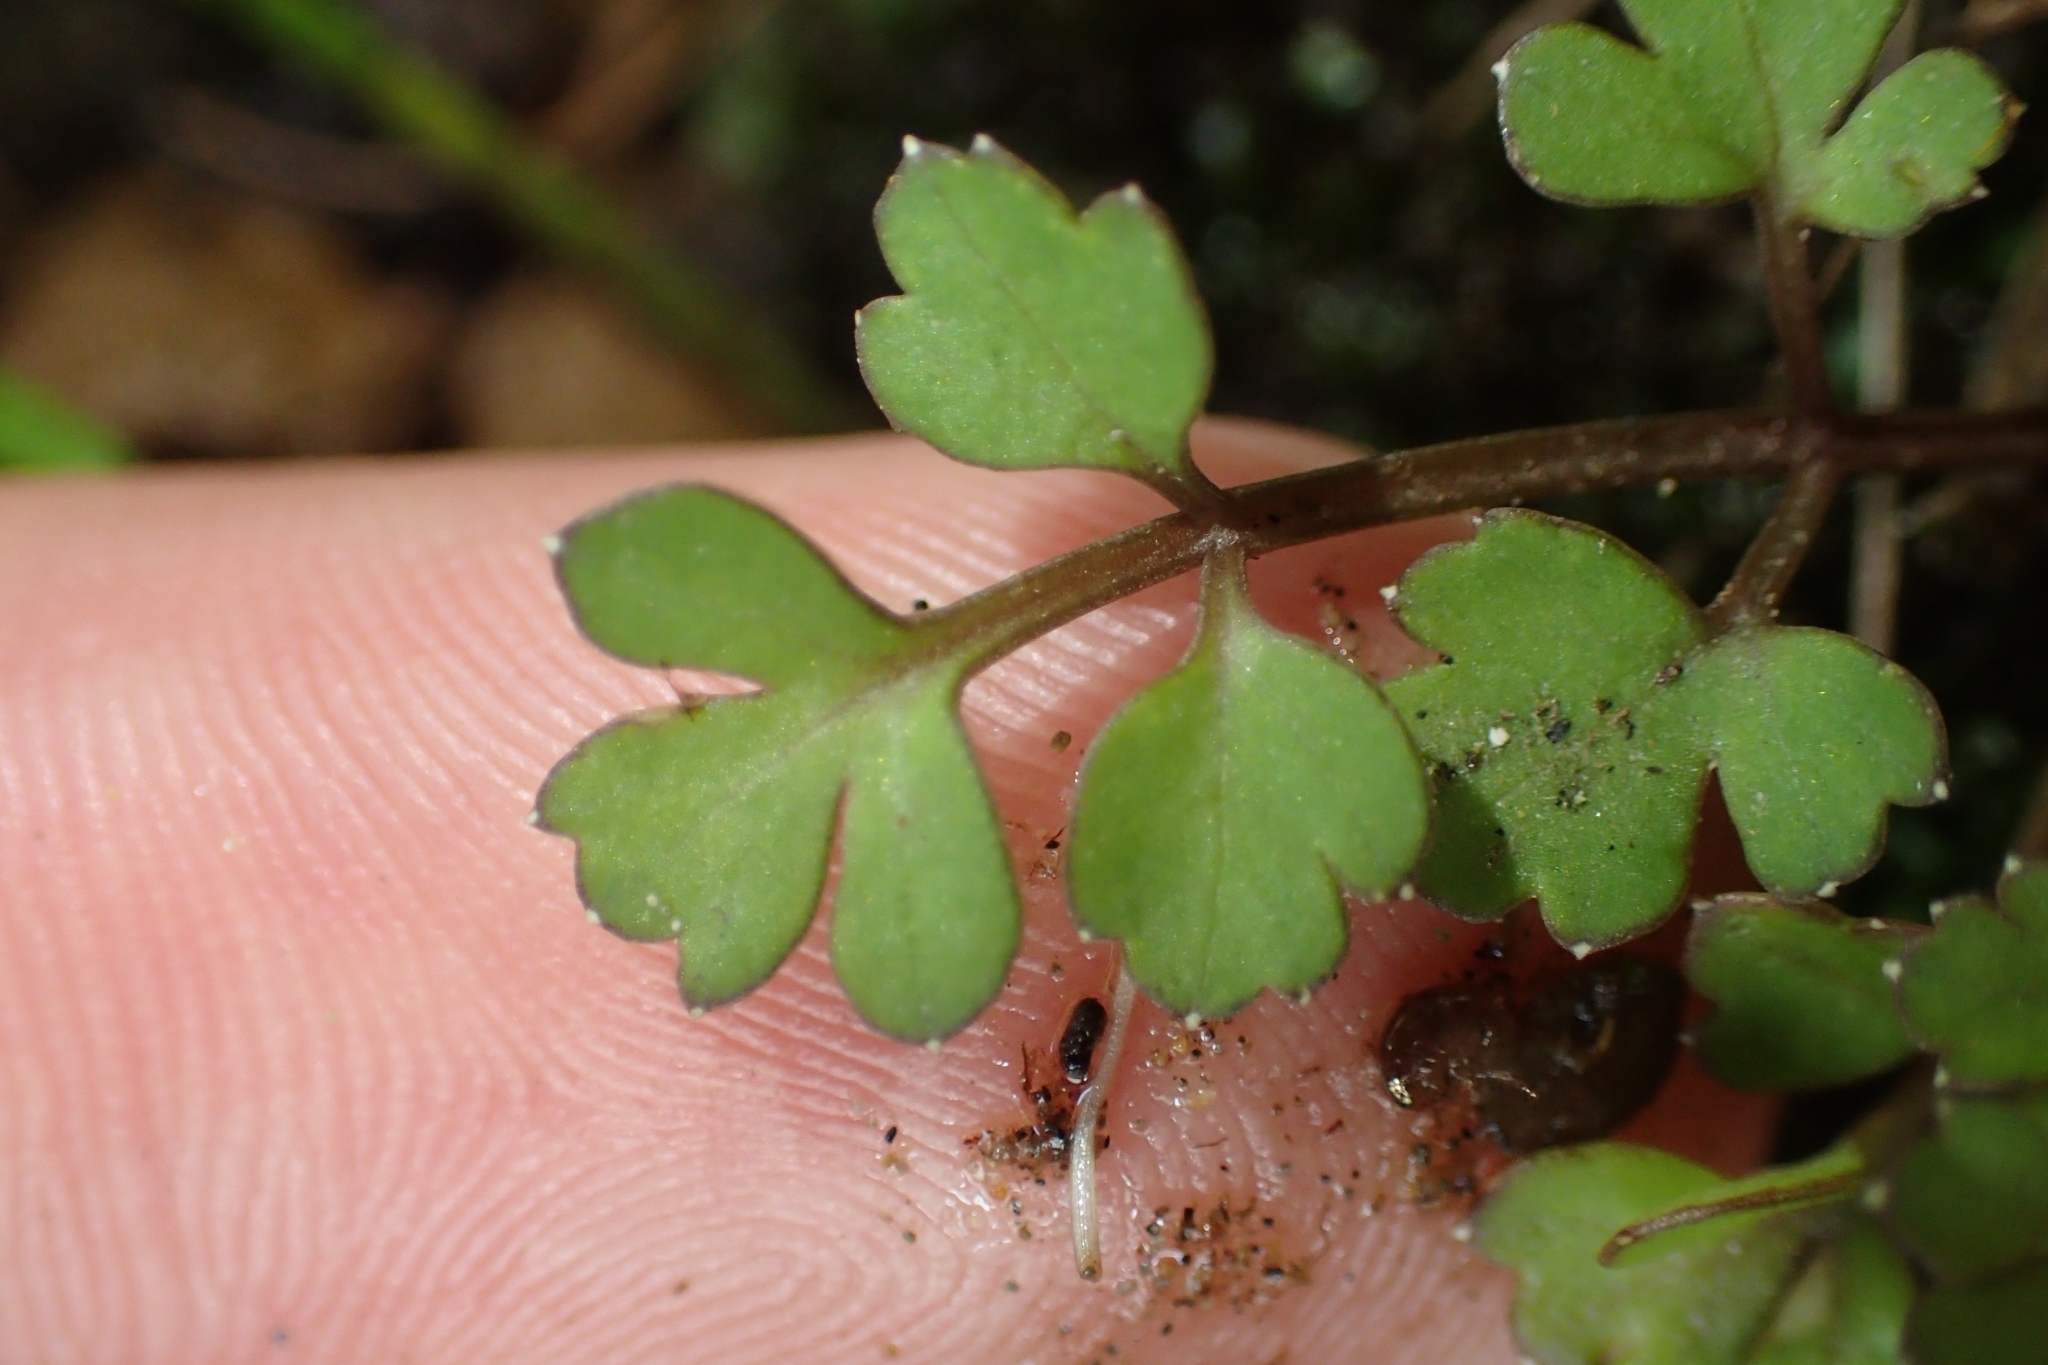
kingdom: Plantae
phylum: Tracheophyta
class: Magnoliopsida
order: Ranunculales
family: Ranunculaceae
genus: Ranunculus
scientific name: Ranunculus acaulis
